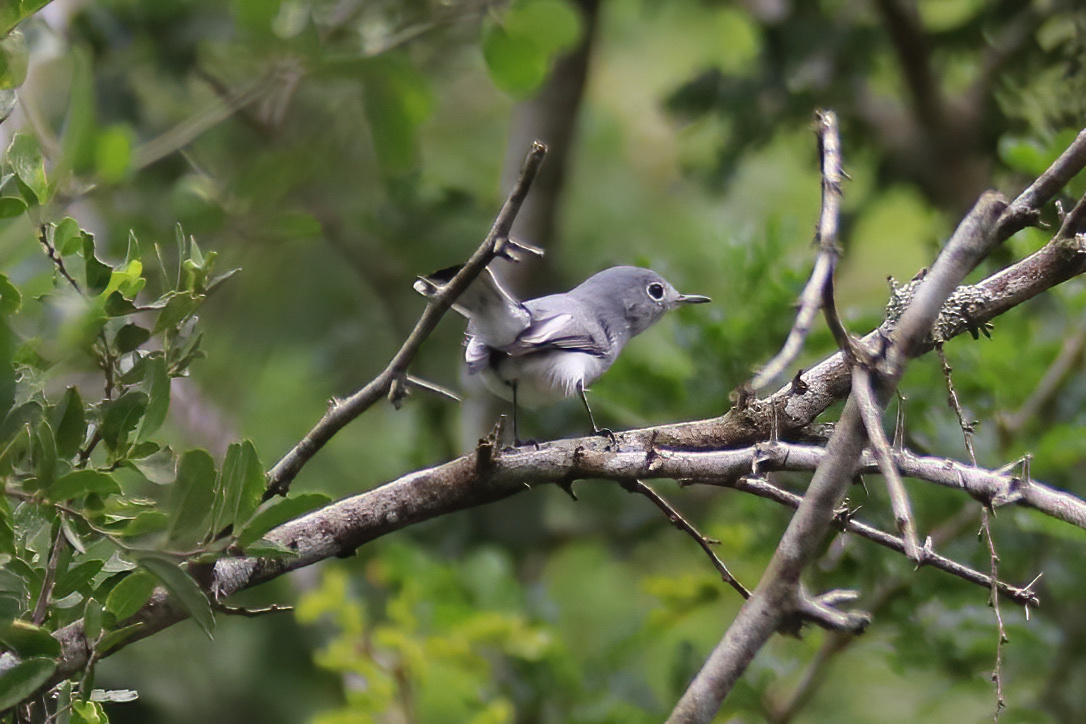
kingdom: Animalia
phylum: Chordata
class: Aves
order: Passeriformes
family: Polioptilidae
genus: Polioptila
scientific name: Polioptila caerulea
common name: Blue-gray gnatcatcher
